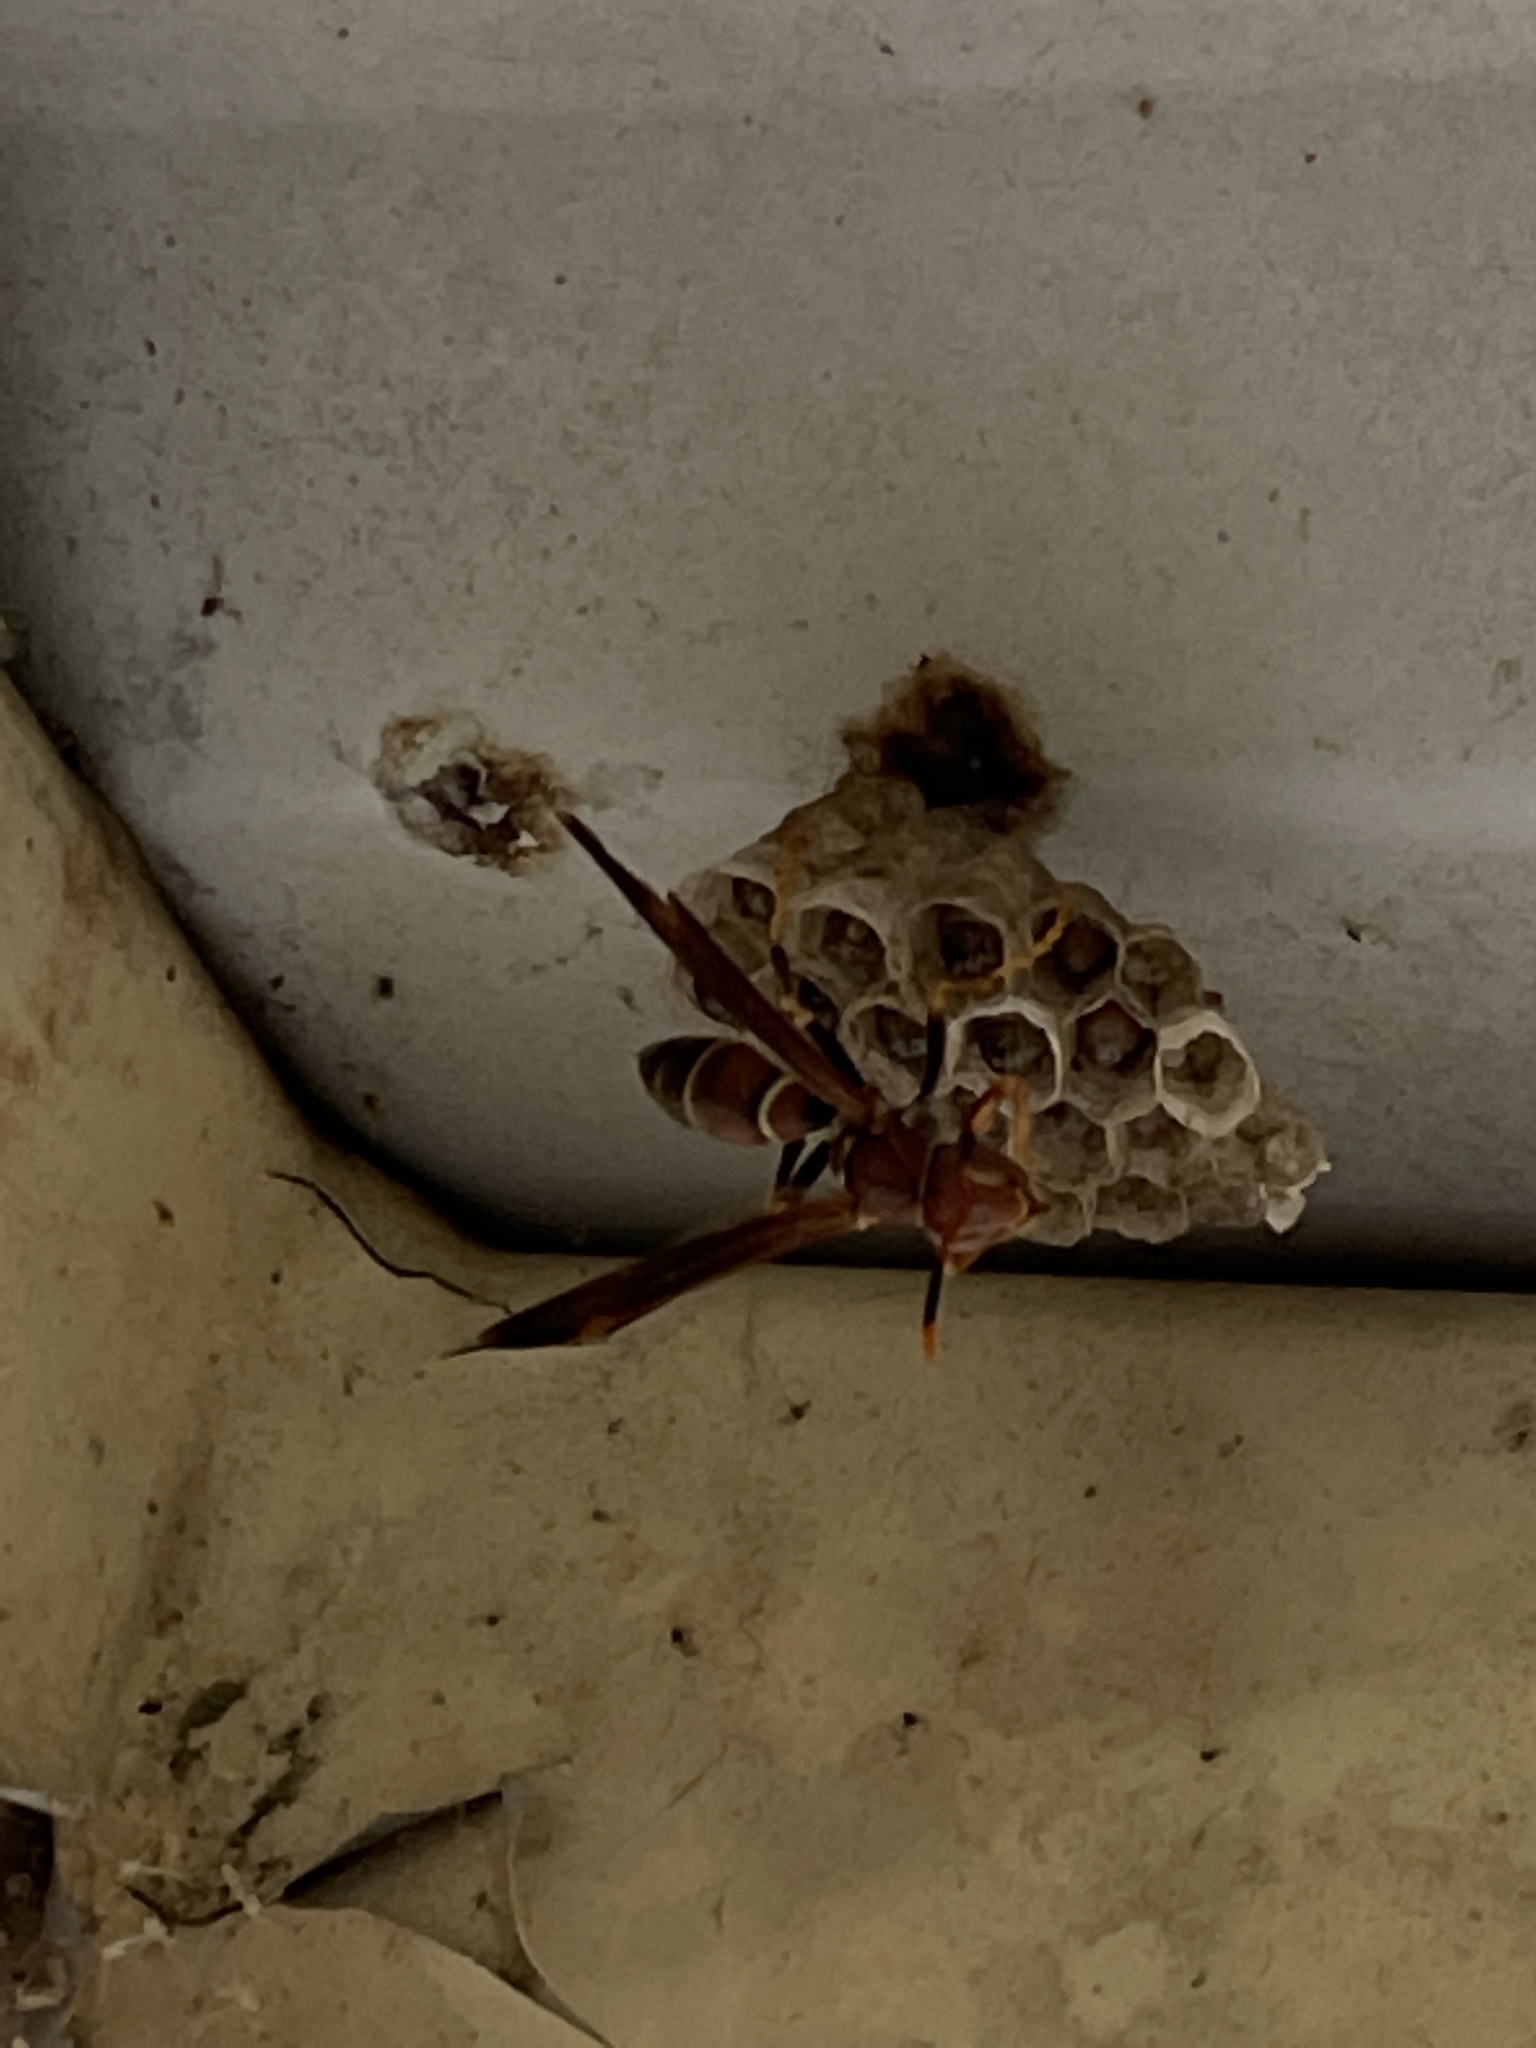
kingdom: Animalia
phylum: Arthropoda
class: Insecta
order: Hymenoptera
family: Eumenidae
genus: Polistes
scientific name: Polistes bahamensis
